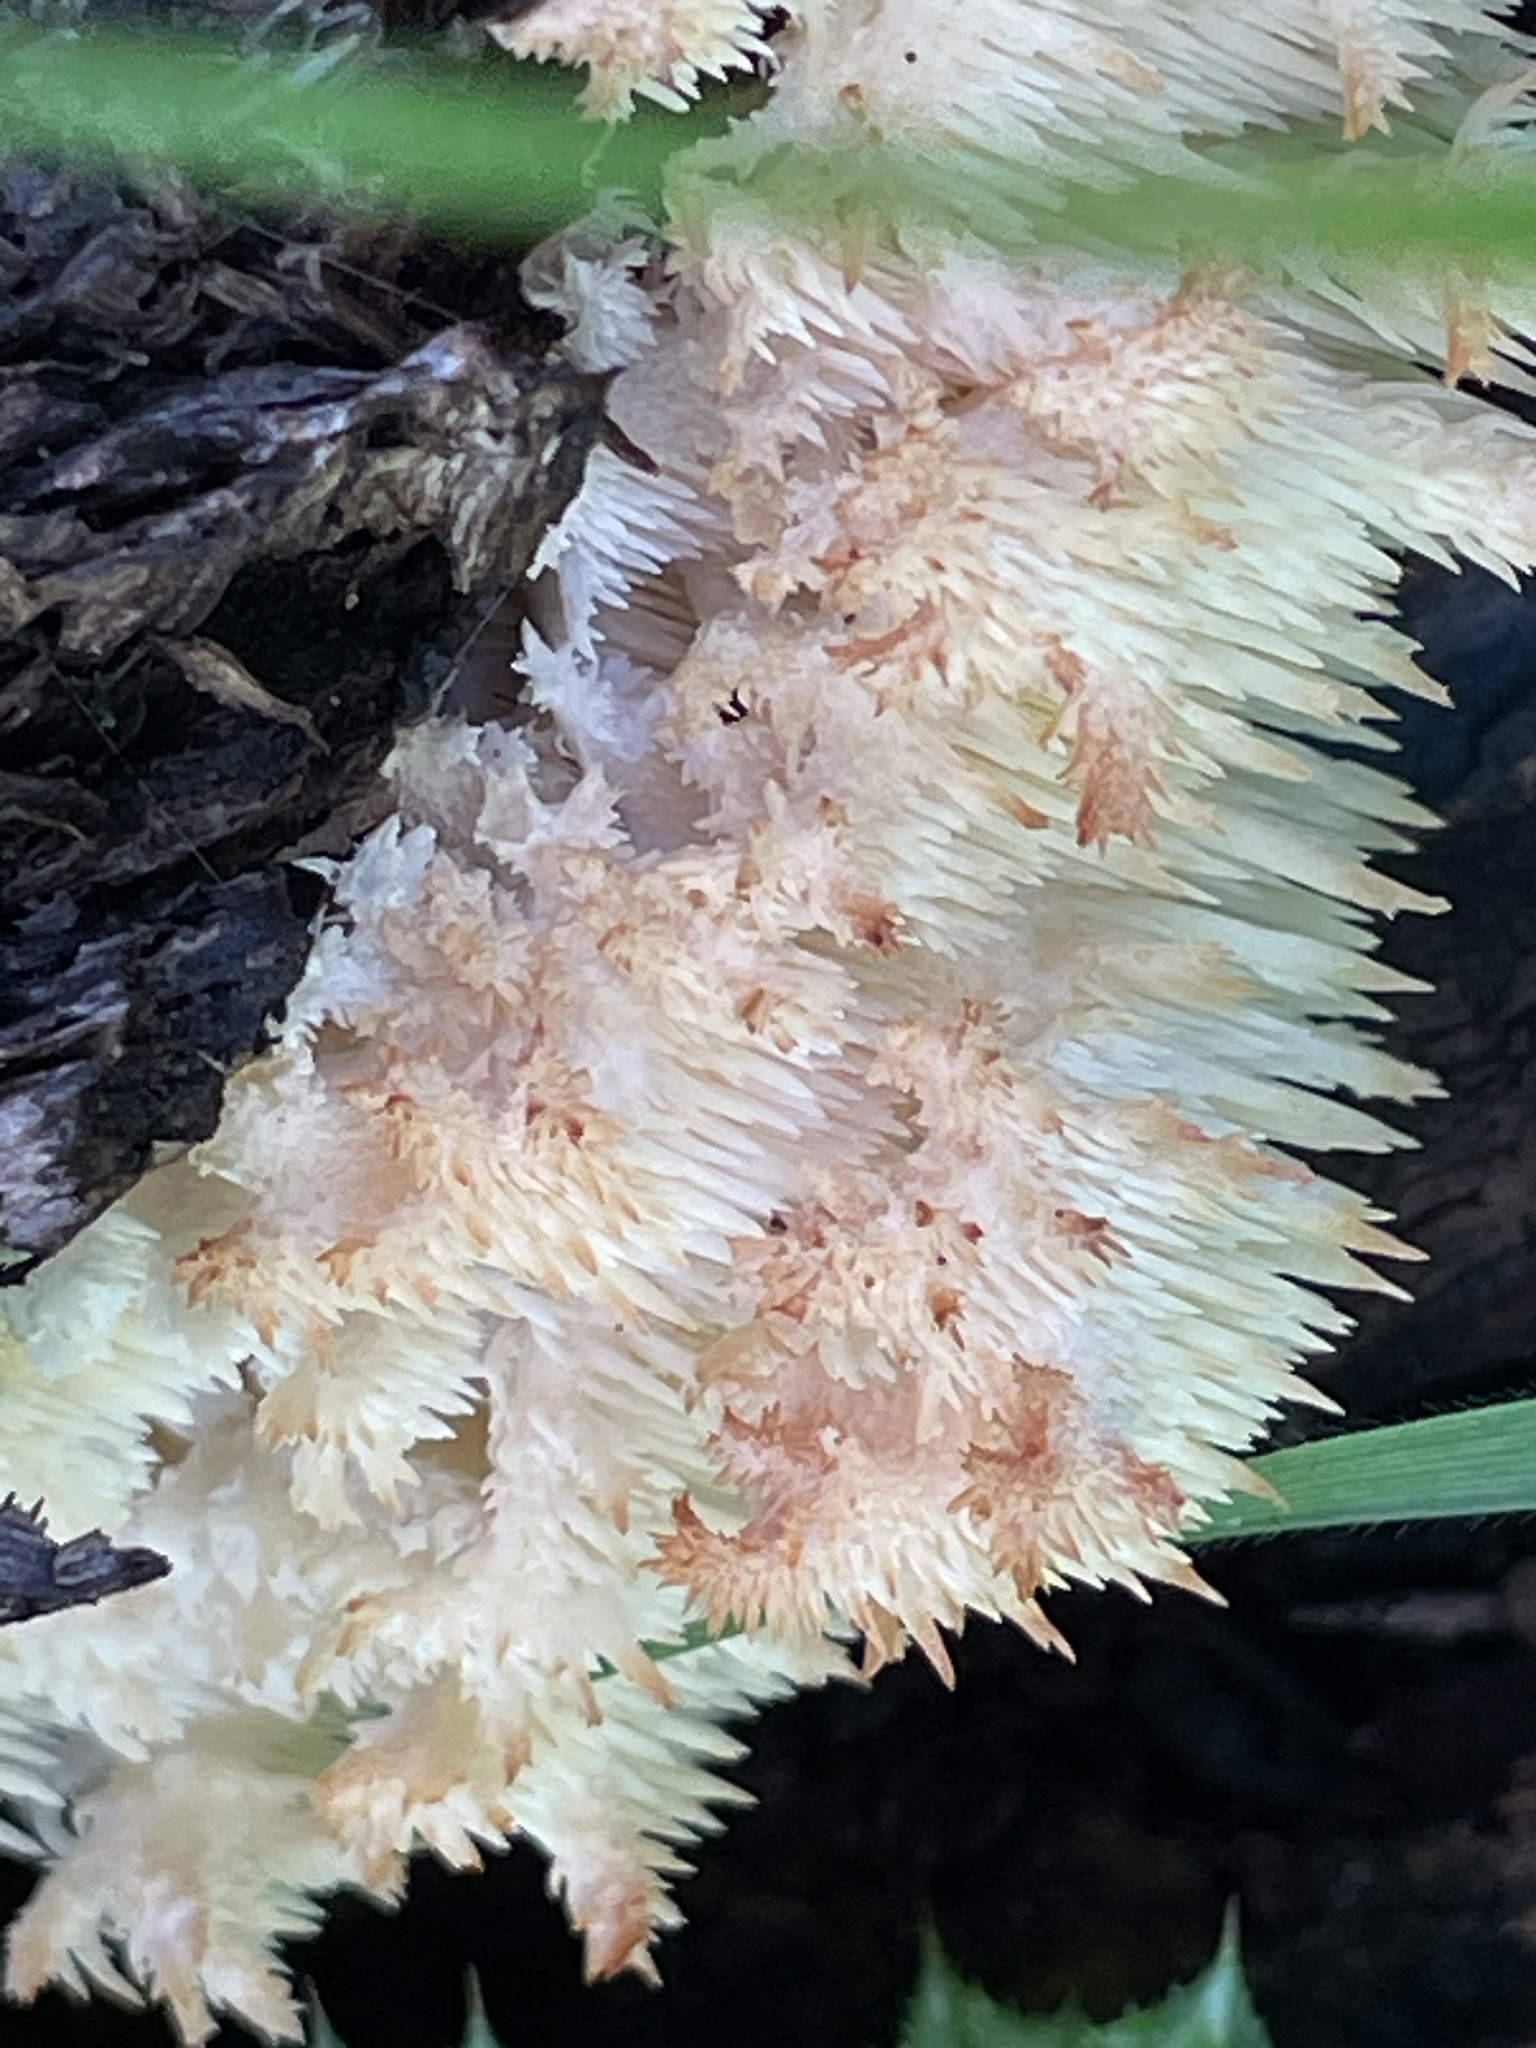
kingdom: Fungi
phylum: Basidiomycota
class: Agaricomycetes
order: Russulales
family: Hericiaceae
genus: Hericium
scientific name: Hericium coralloides
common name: Coral tooth
